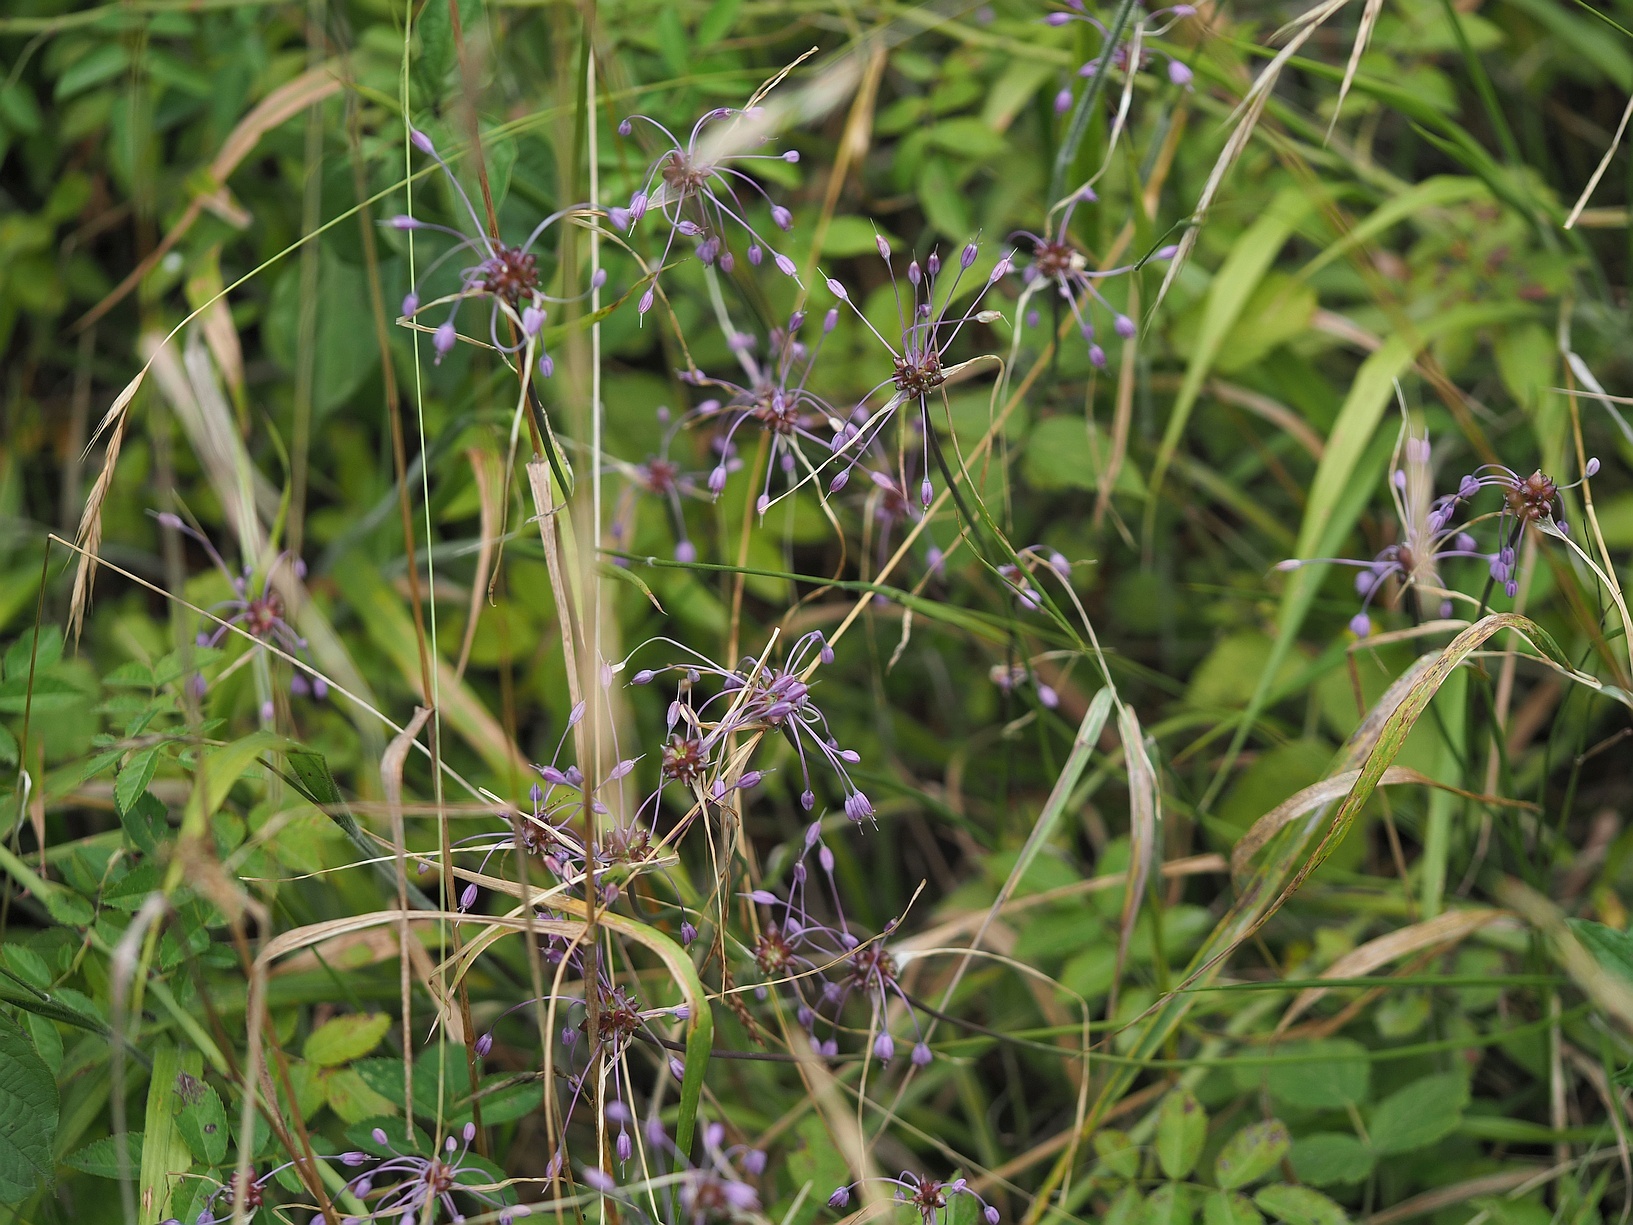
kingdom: Plantae
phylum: Tracheophyta
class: Liliopsida
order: Asparagales
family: Amaryllidaceae
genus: Allium
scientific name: Allium carinatum
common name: Keeled garlic
